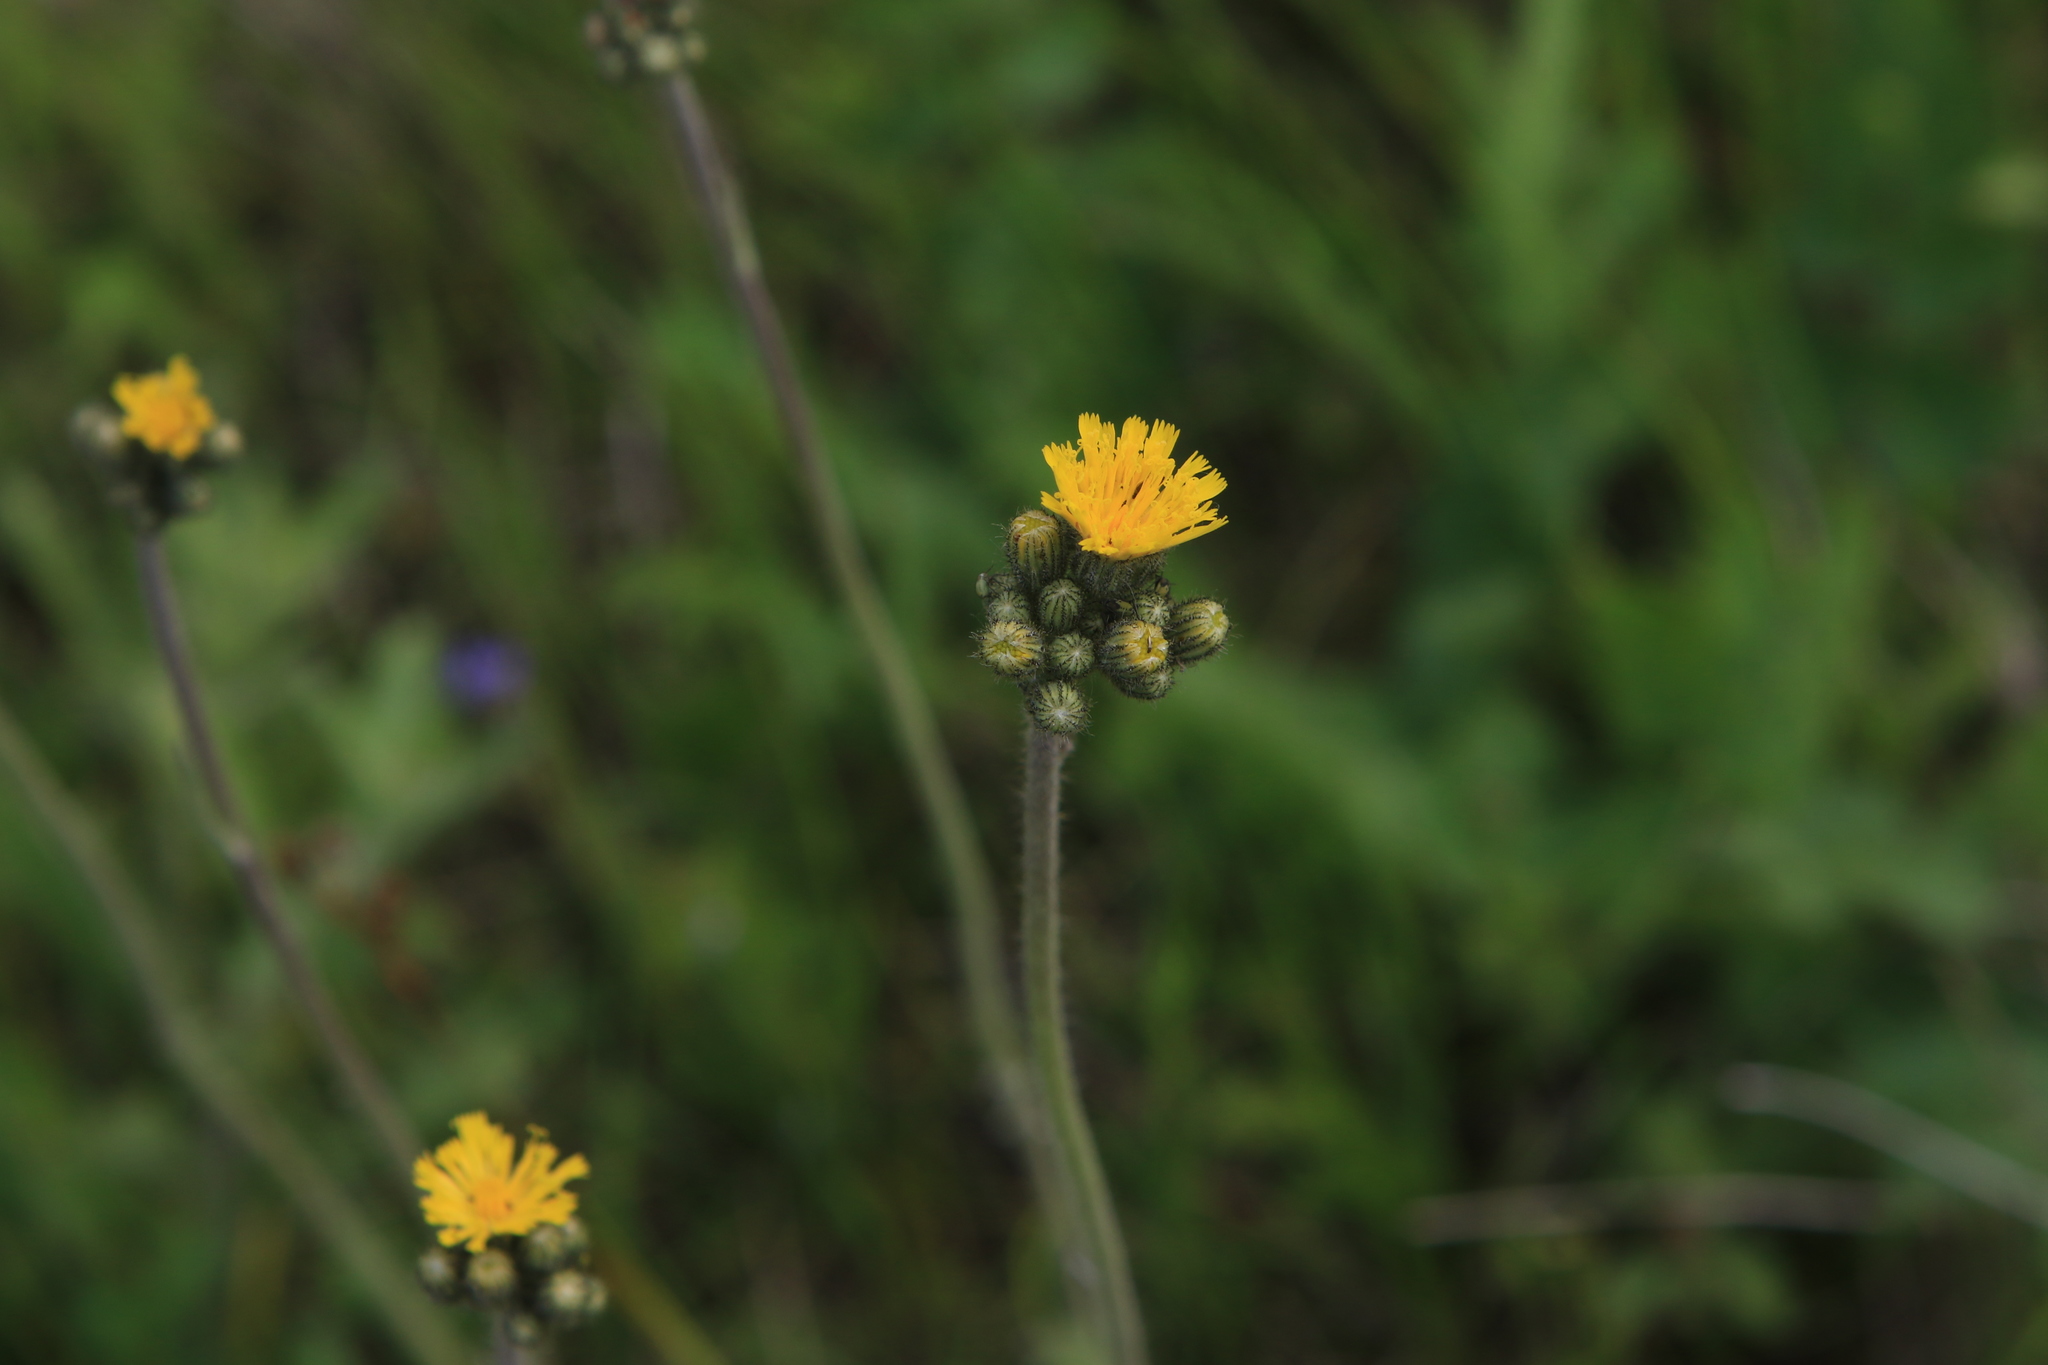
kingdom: Plantae
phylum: Tracheophyta
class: Magnoliopsida
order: Asterales
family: Asteraceae
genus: Pilosella
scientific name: Pilosella
